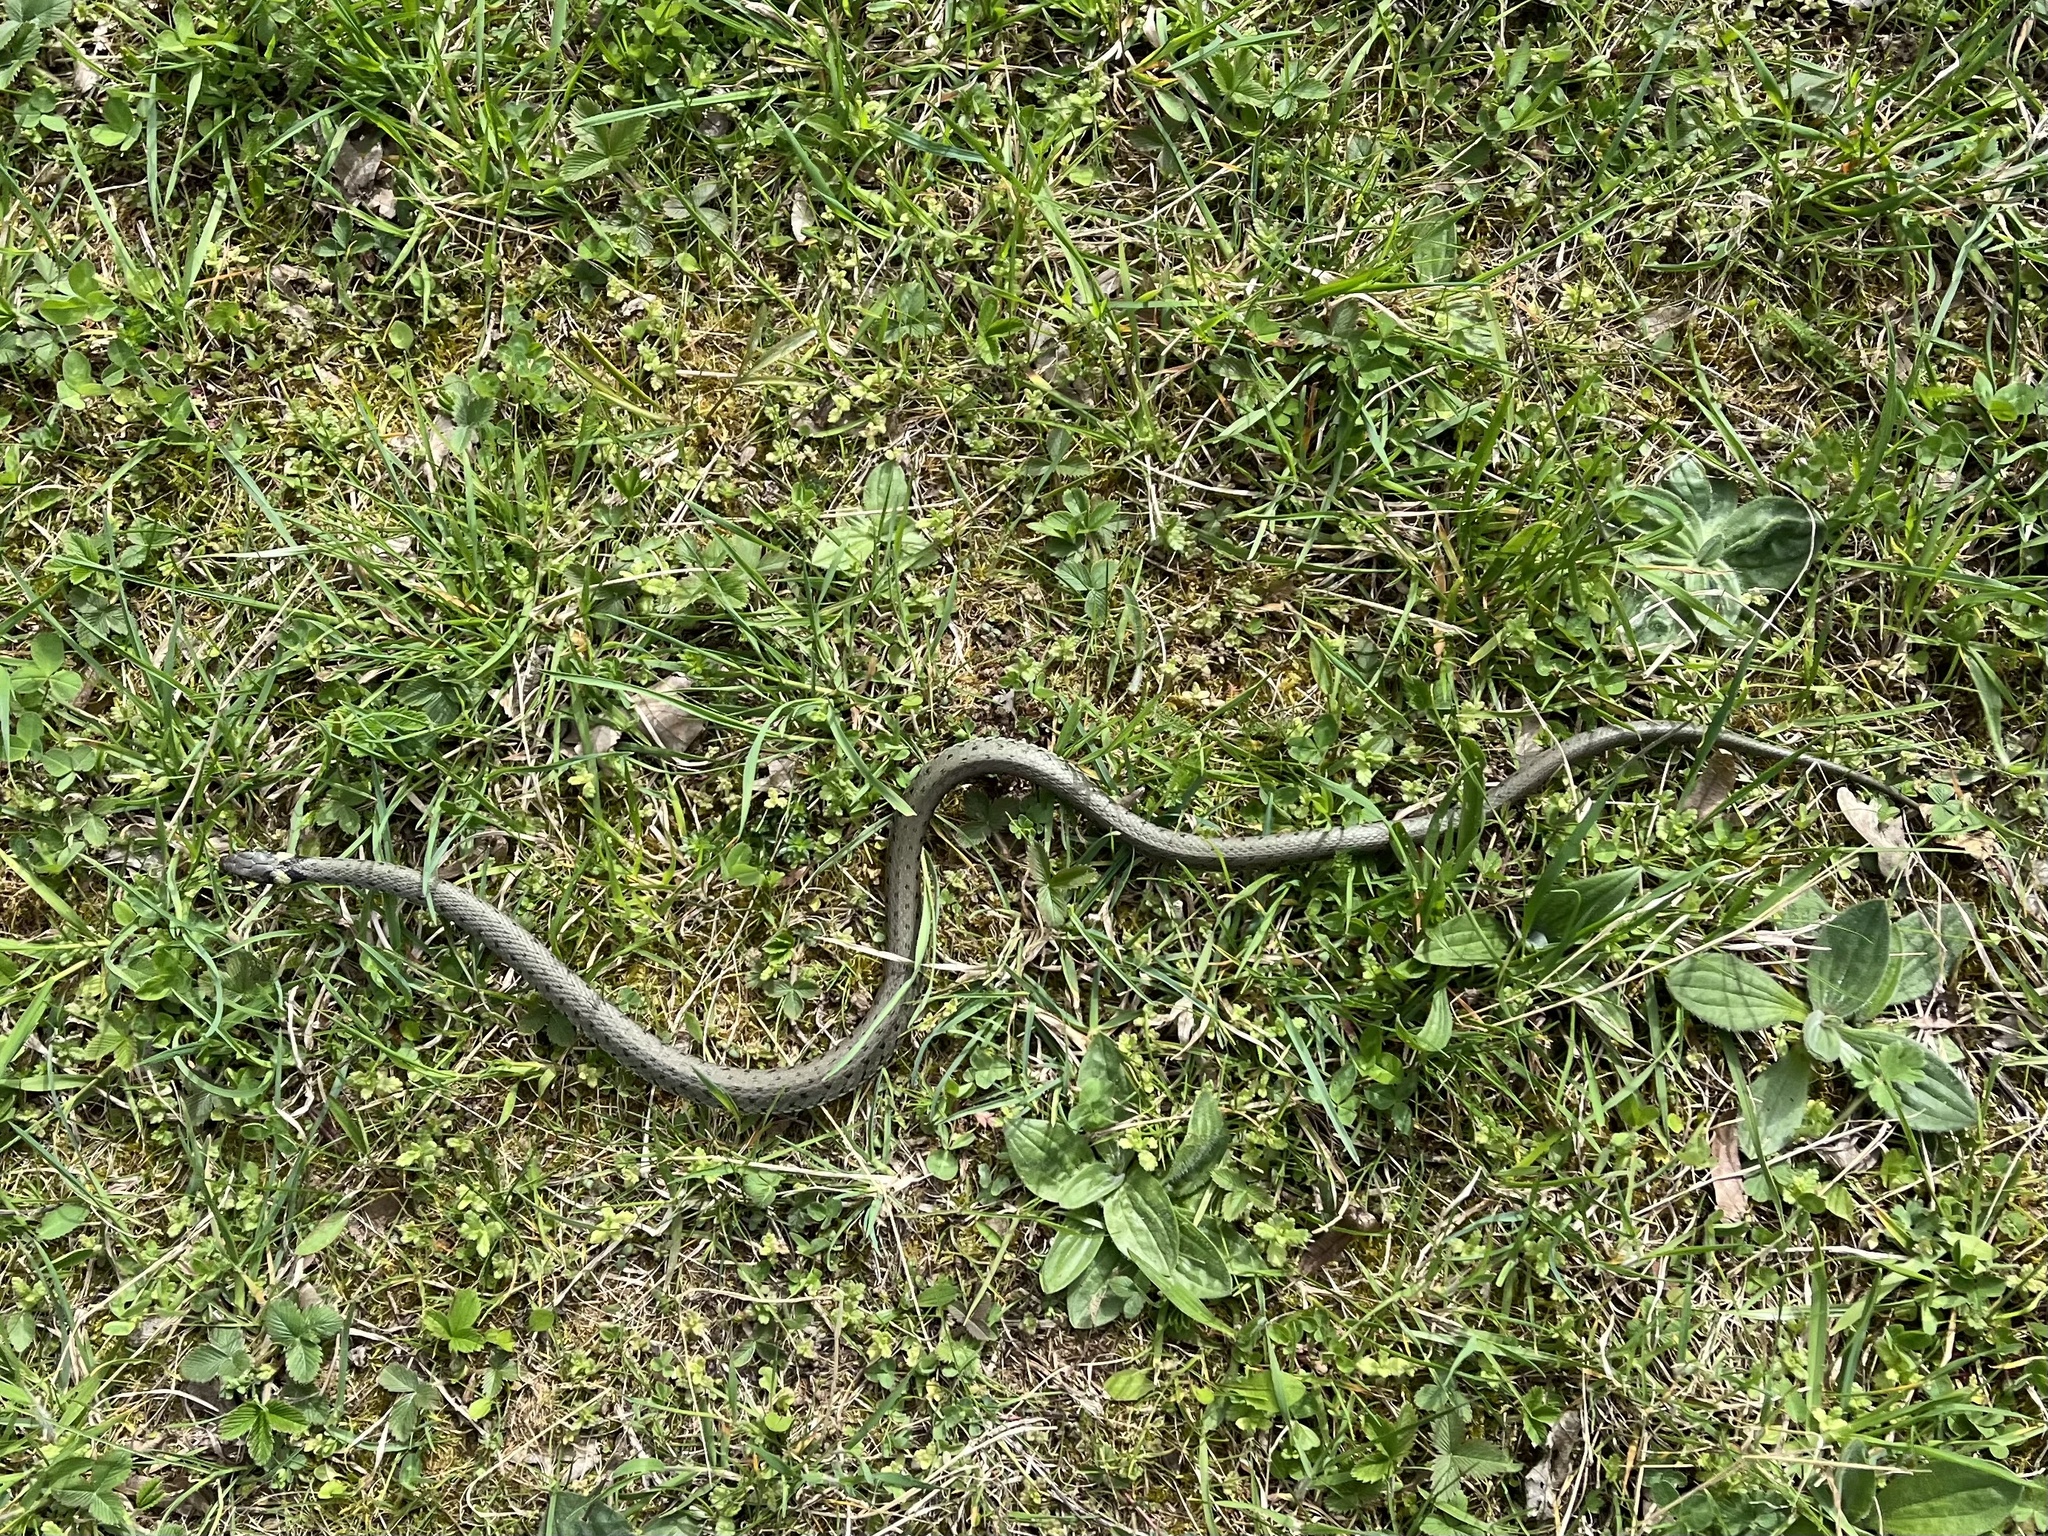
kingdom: Animalia
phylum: Chordata
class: Squamata
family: Colubridae
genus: Natrix
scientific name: Natrix natrix
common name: Grass snake
